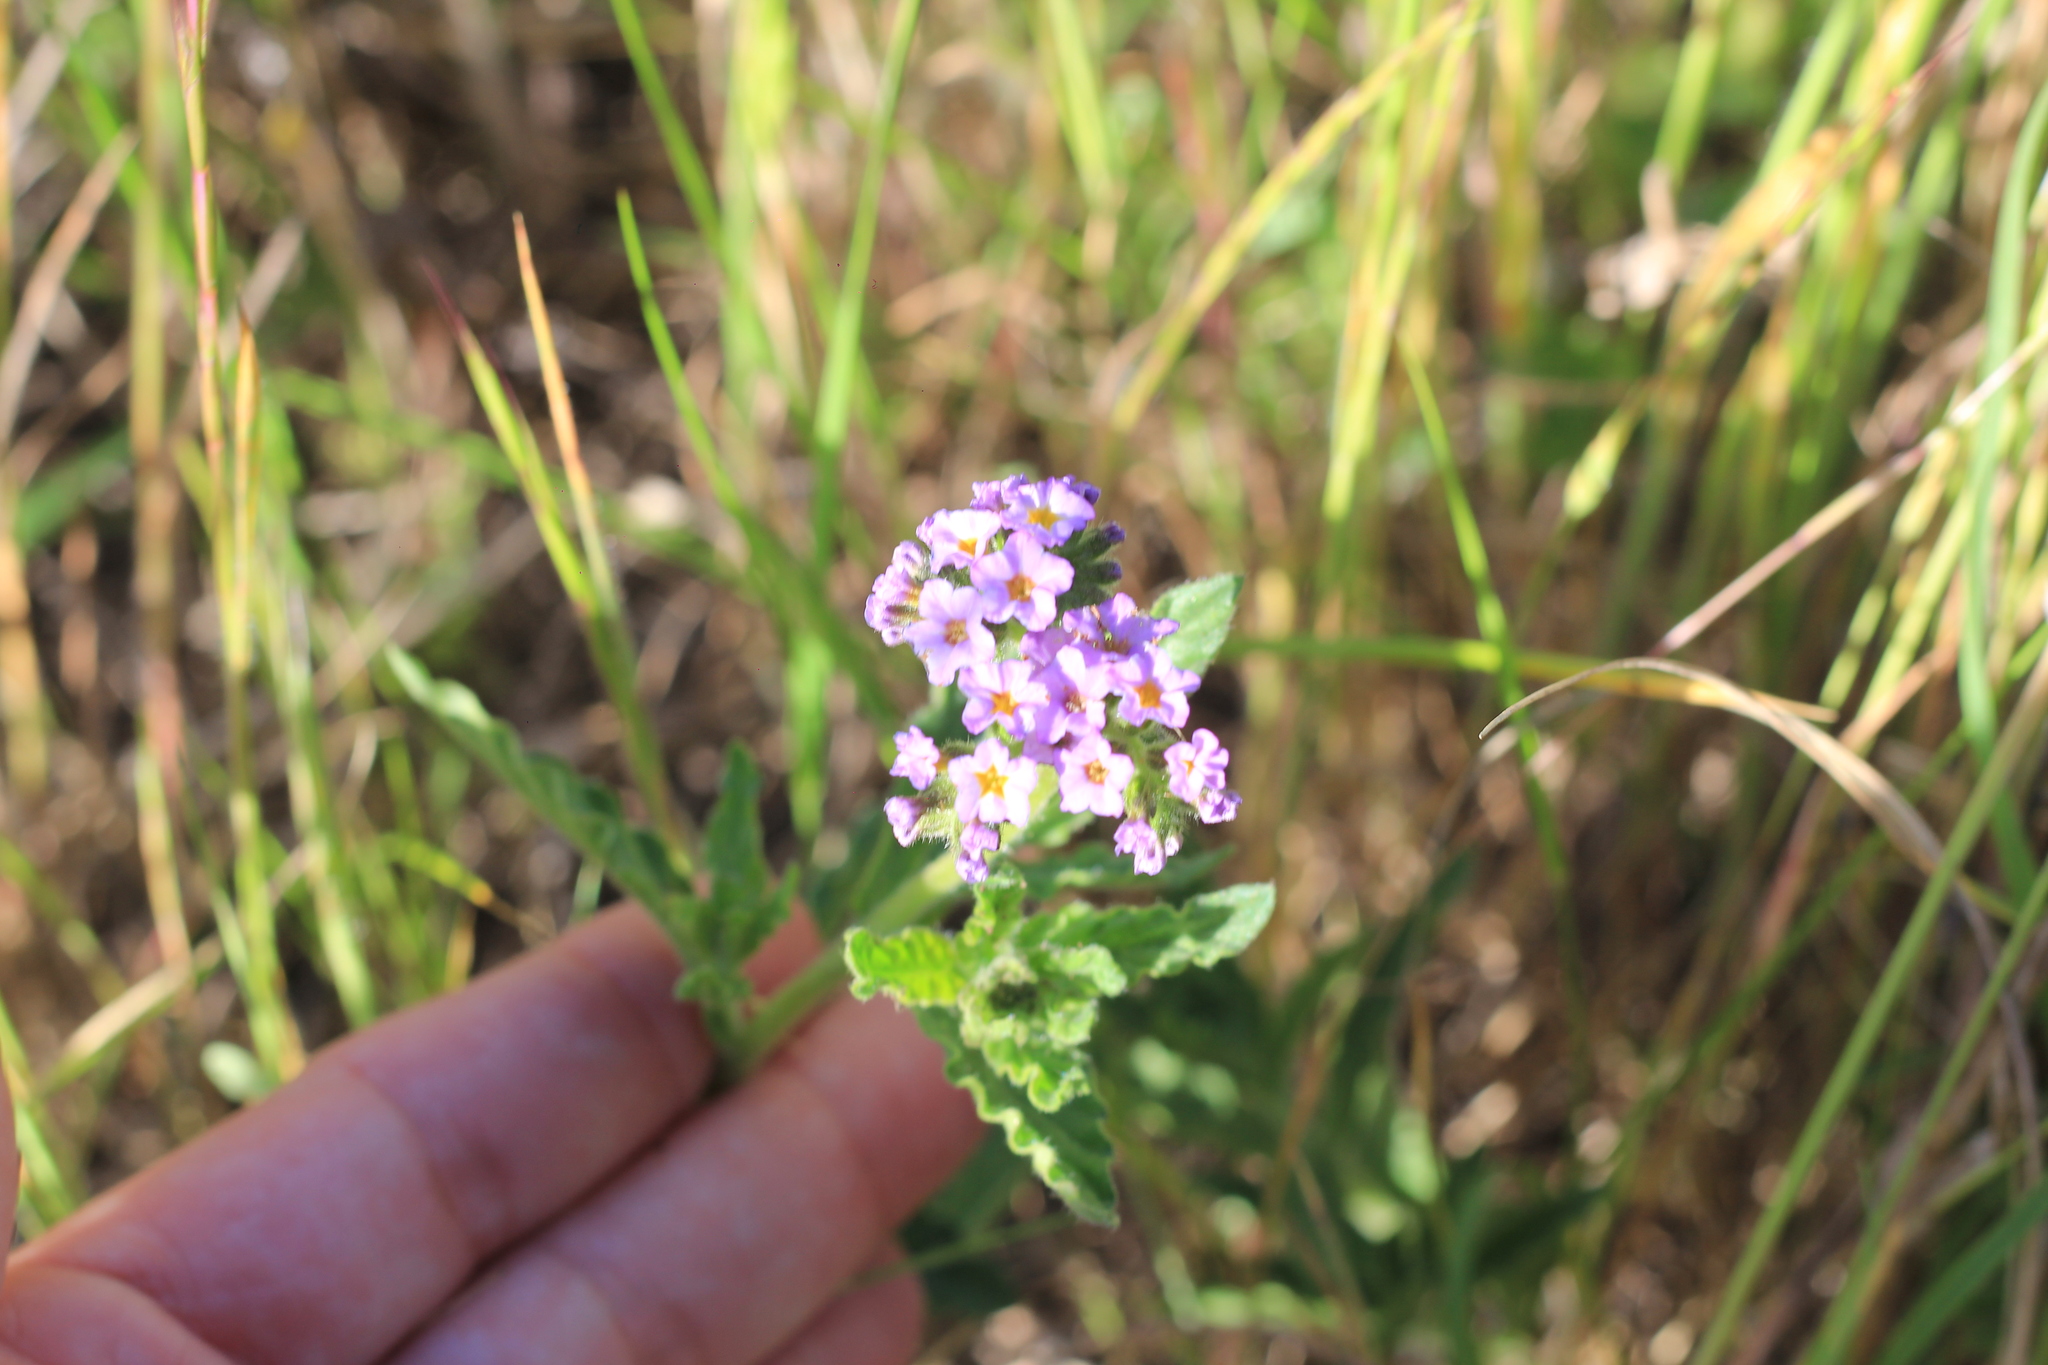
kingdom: Plantae
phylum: Tracheophyta
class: Magnoliopsida
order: Boraginales
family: Heliotropiaceae
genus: Heliotropium
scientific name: Heliotropium nicotianifolium
